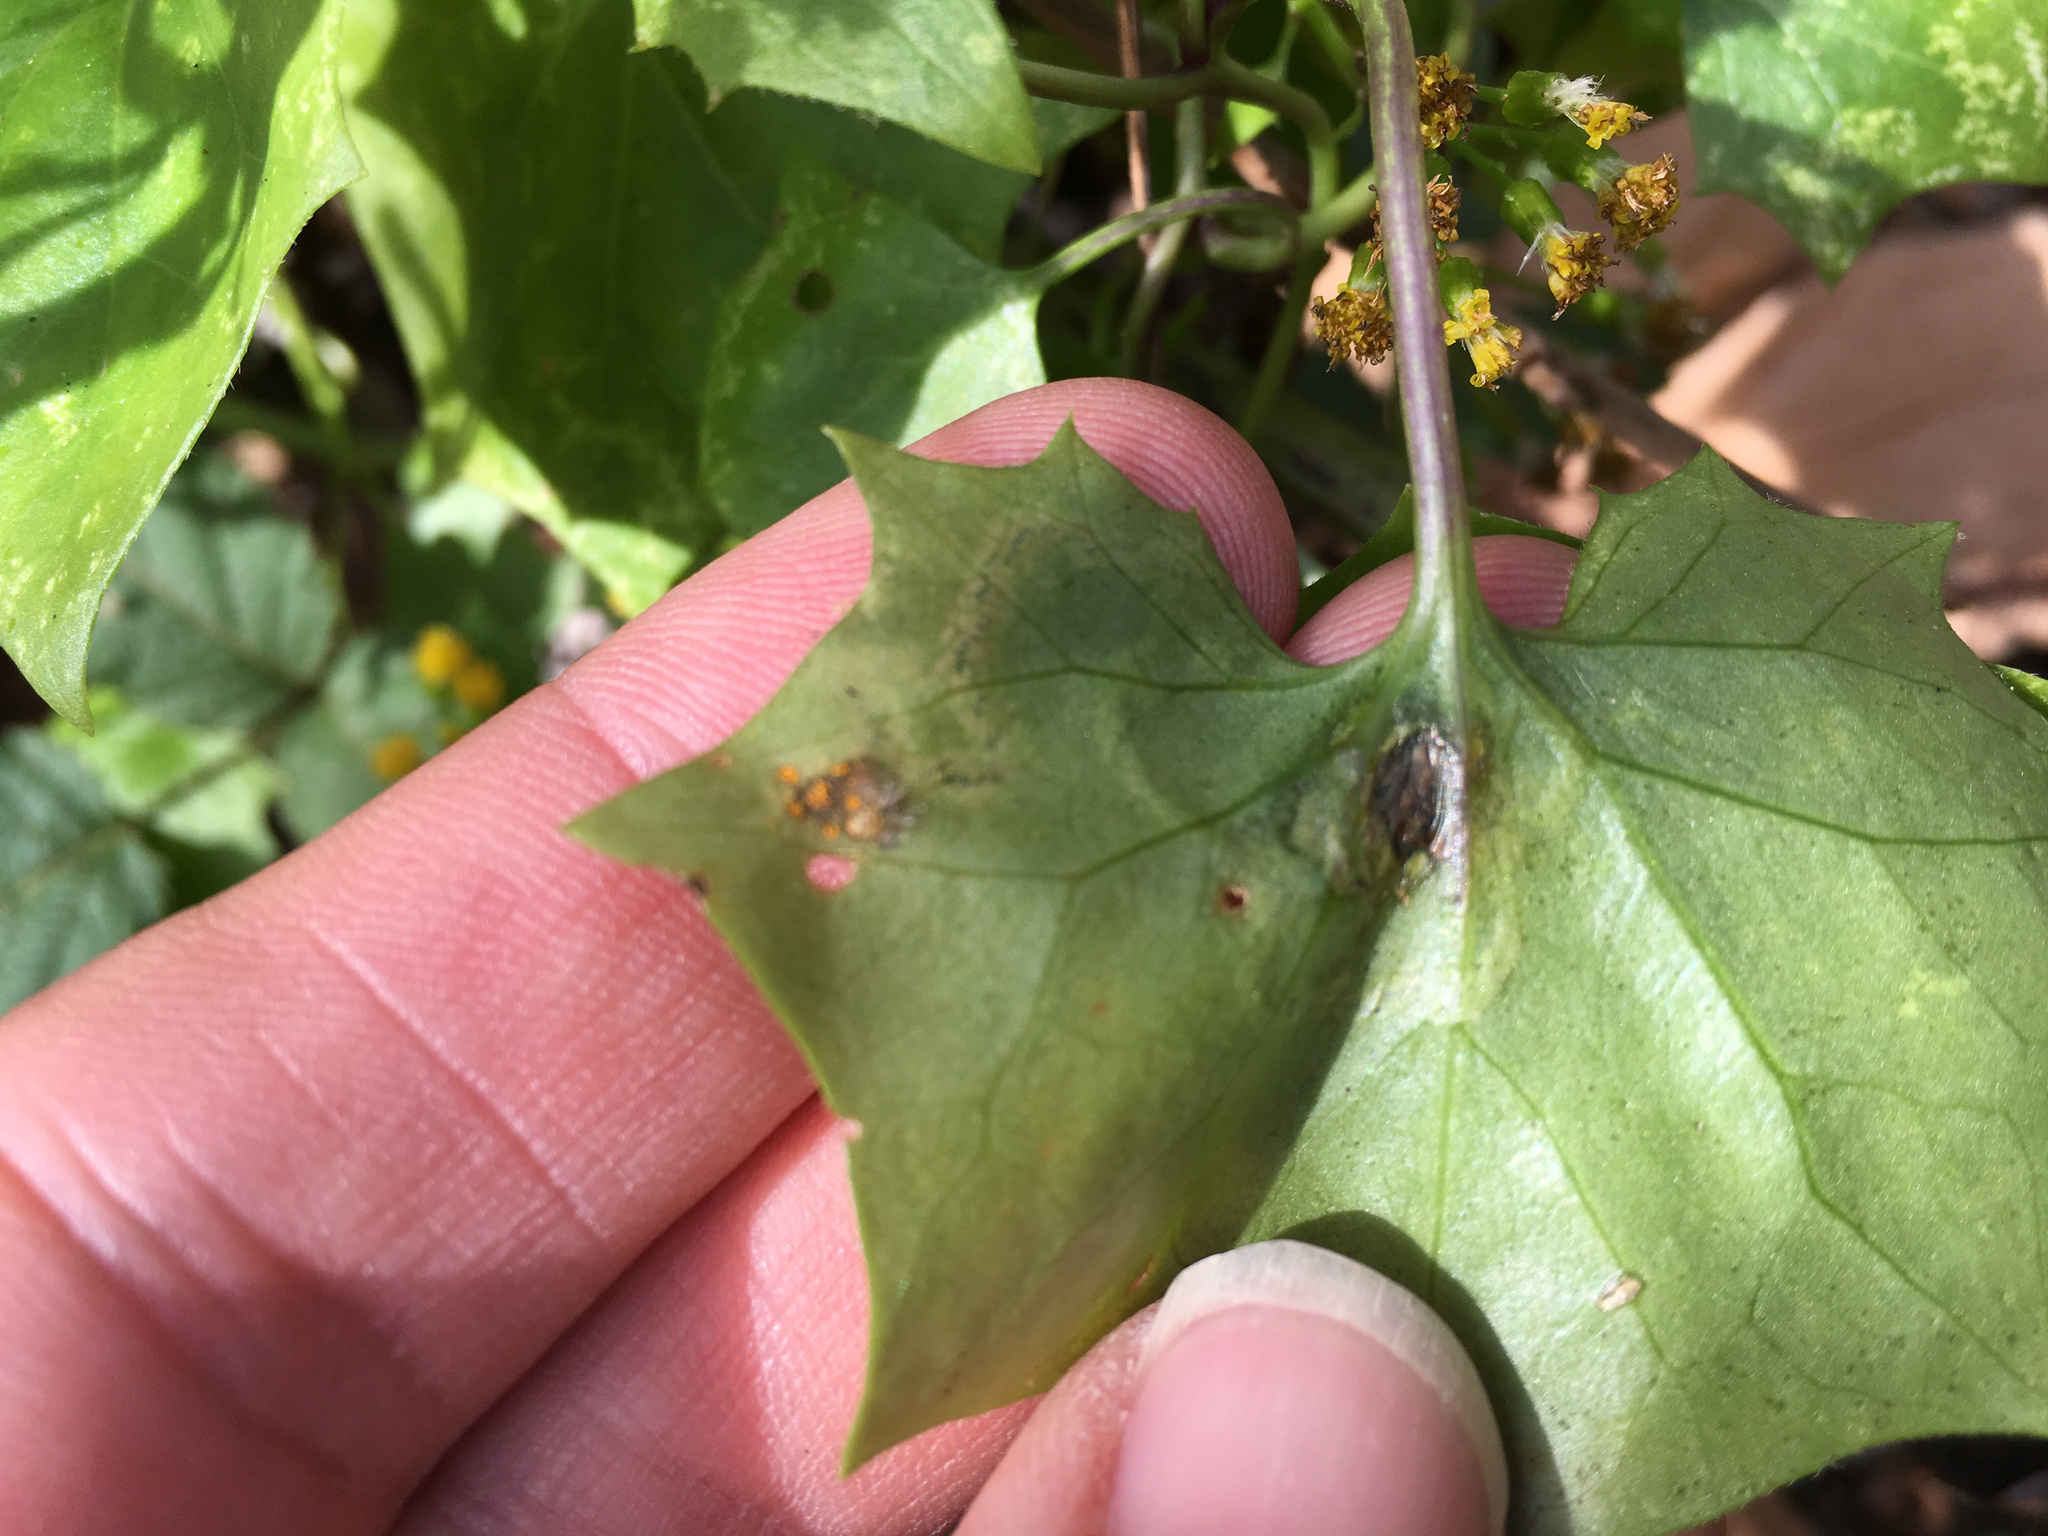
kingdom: Fungi
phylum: Basidiomycota
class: Pucciniomycetes
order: Pucciniales
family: Coleosporiaceae
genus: Coleosporium
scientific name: Coleosporium tussilaginis
